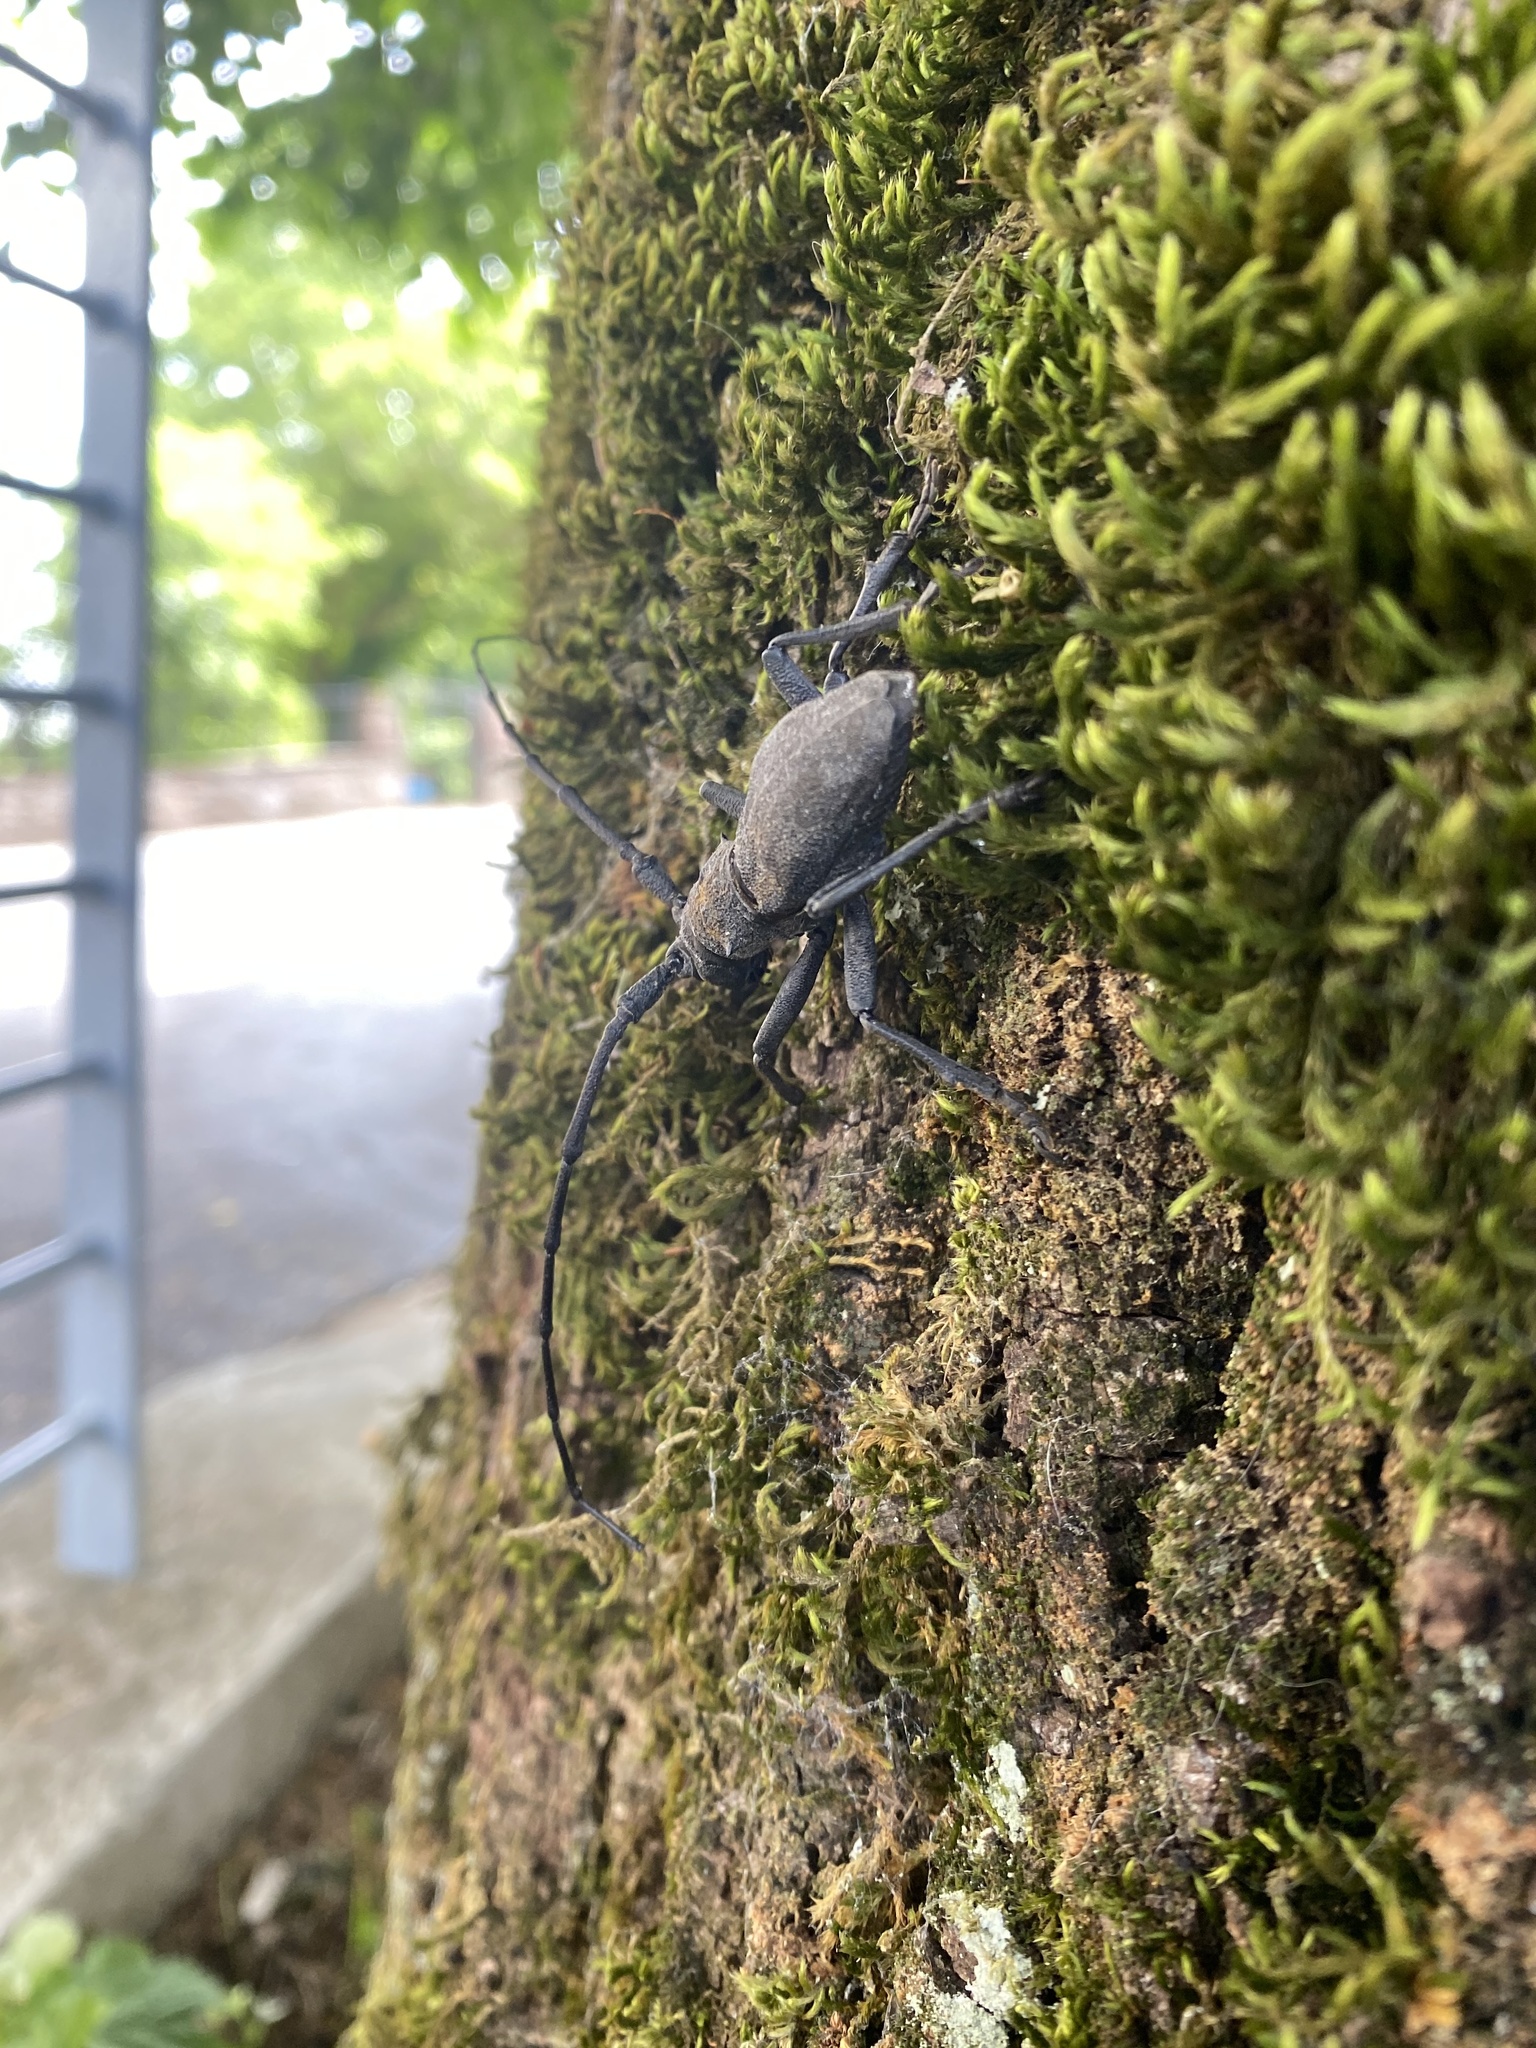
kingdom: Animalia
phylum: Arthropoda
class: Insecta
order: Coleoptera
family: Cerambycidae
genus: Morimus
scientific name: Morimus asper
